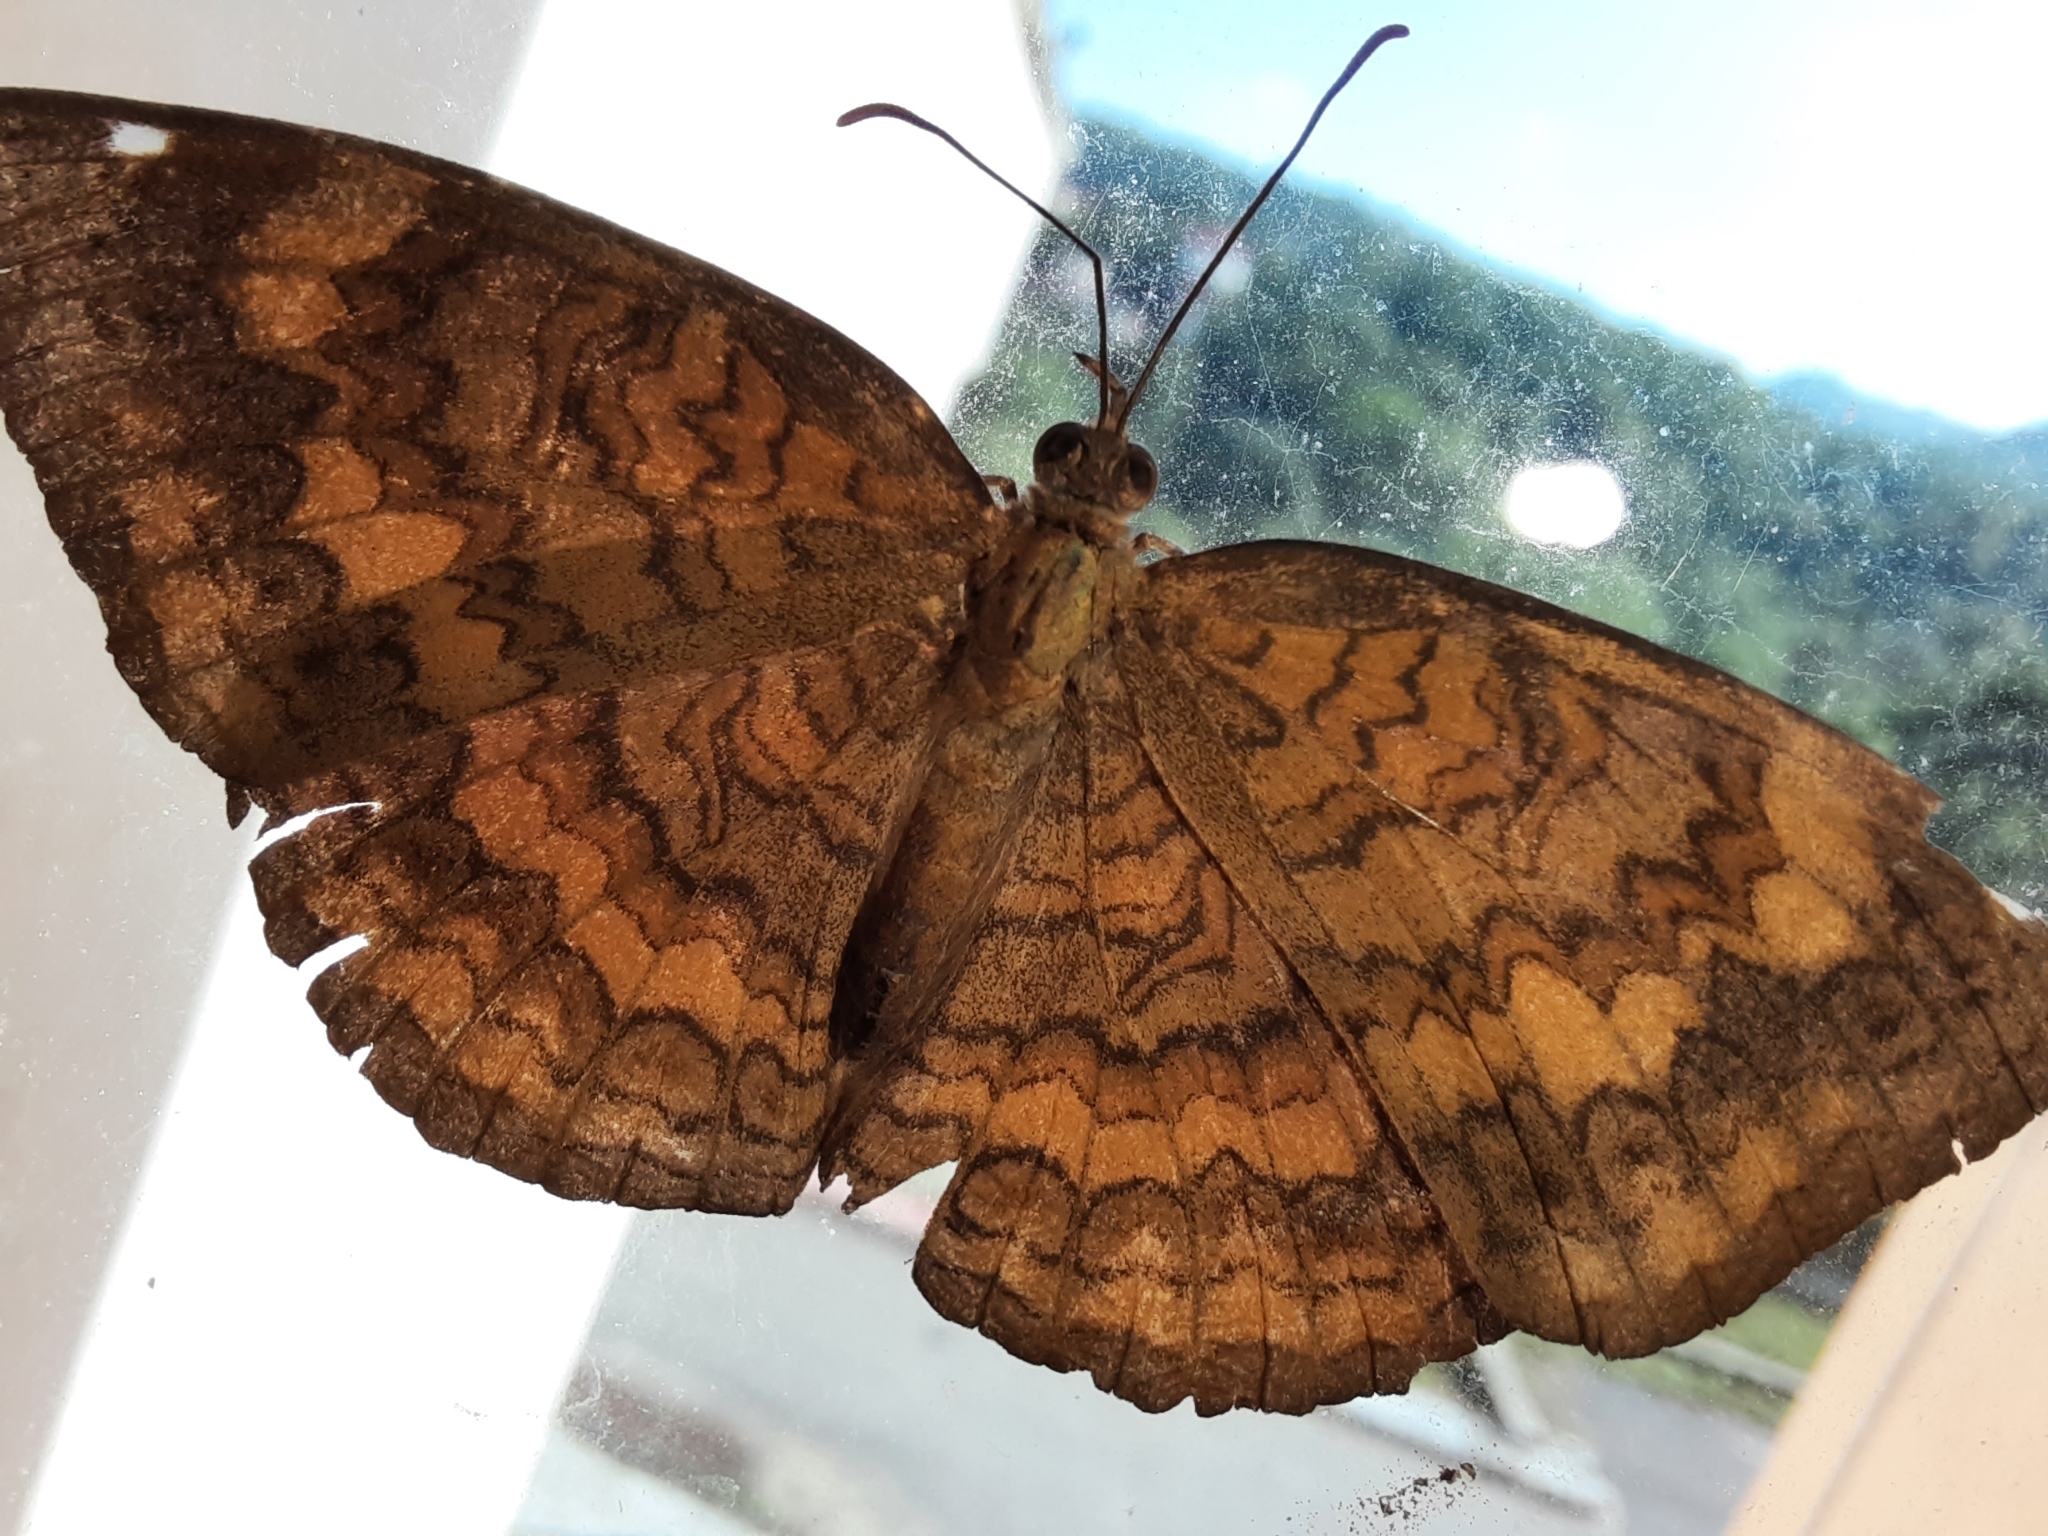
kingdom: Animalia
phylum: Arthropoda
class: Insecta
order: Lepidoptera
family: Nymphalidae
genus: Ariadne
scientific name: Ariadne merione
